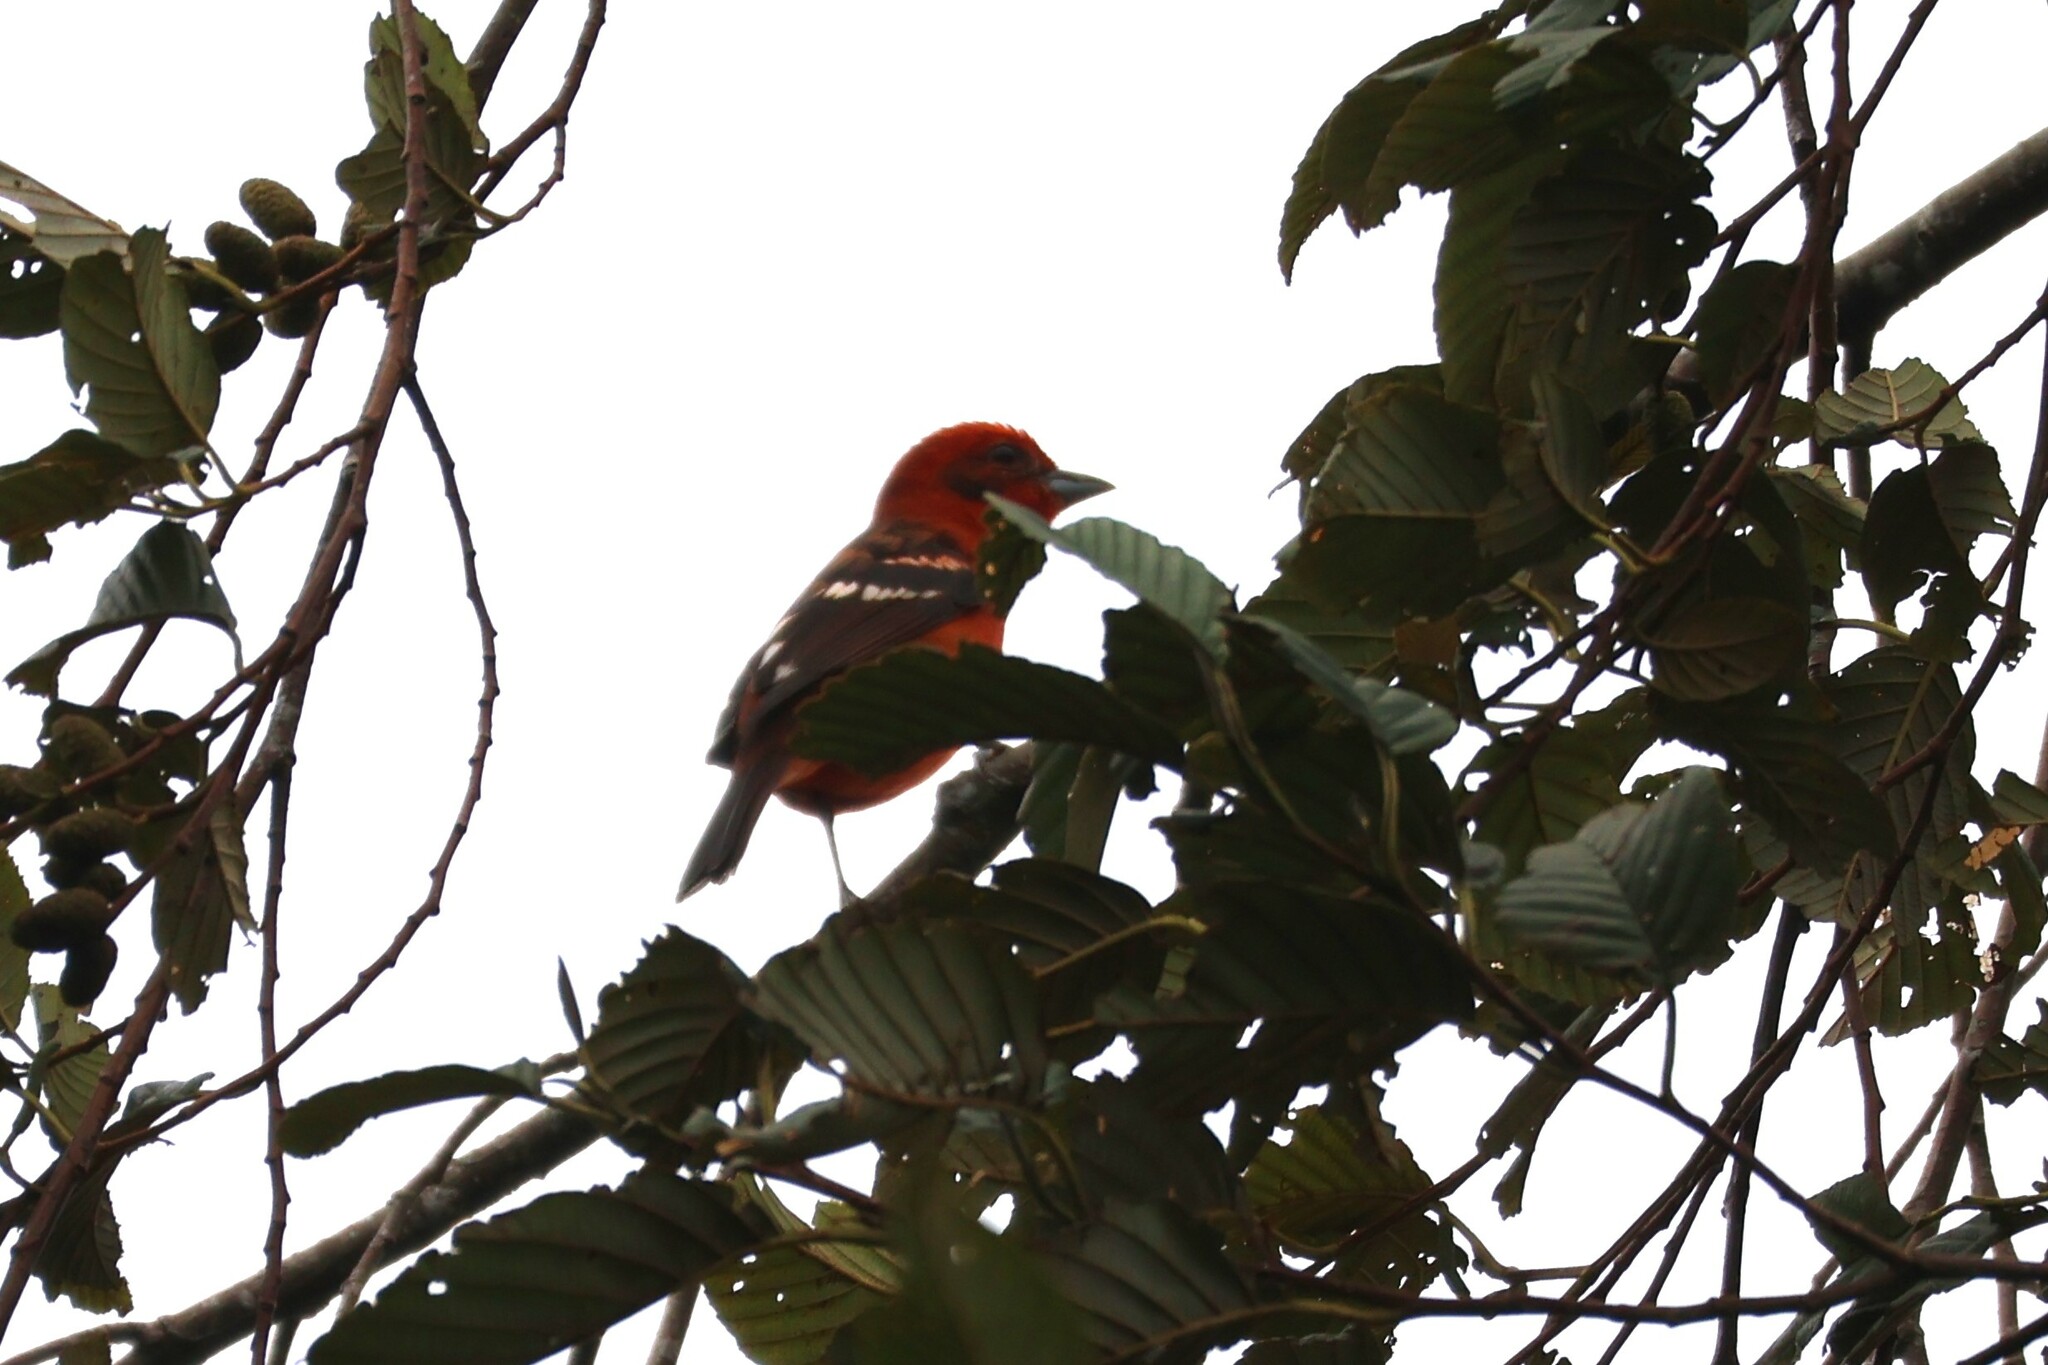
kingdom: Animalia
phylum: Chordata
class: Aves
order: Passeriformes
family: Cardinalidae
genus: Piranga
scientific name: Piranga bidentata
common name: Flame-colored tanager
